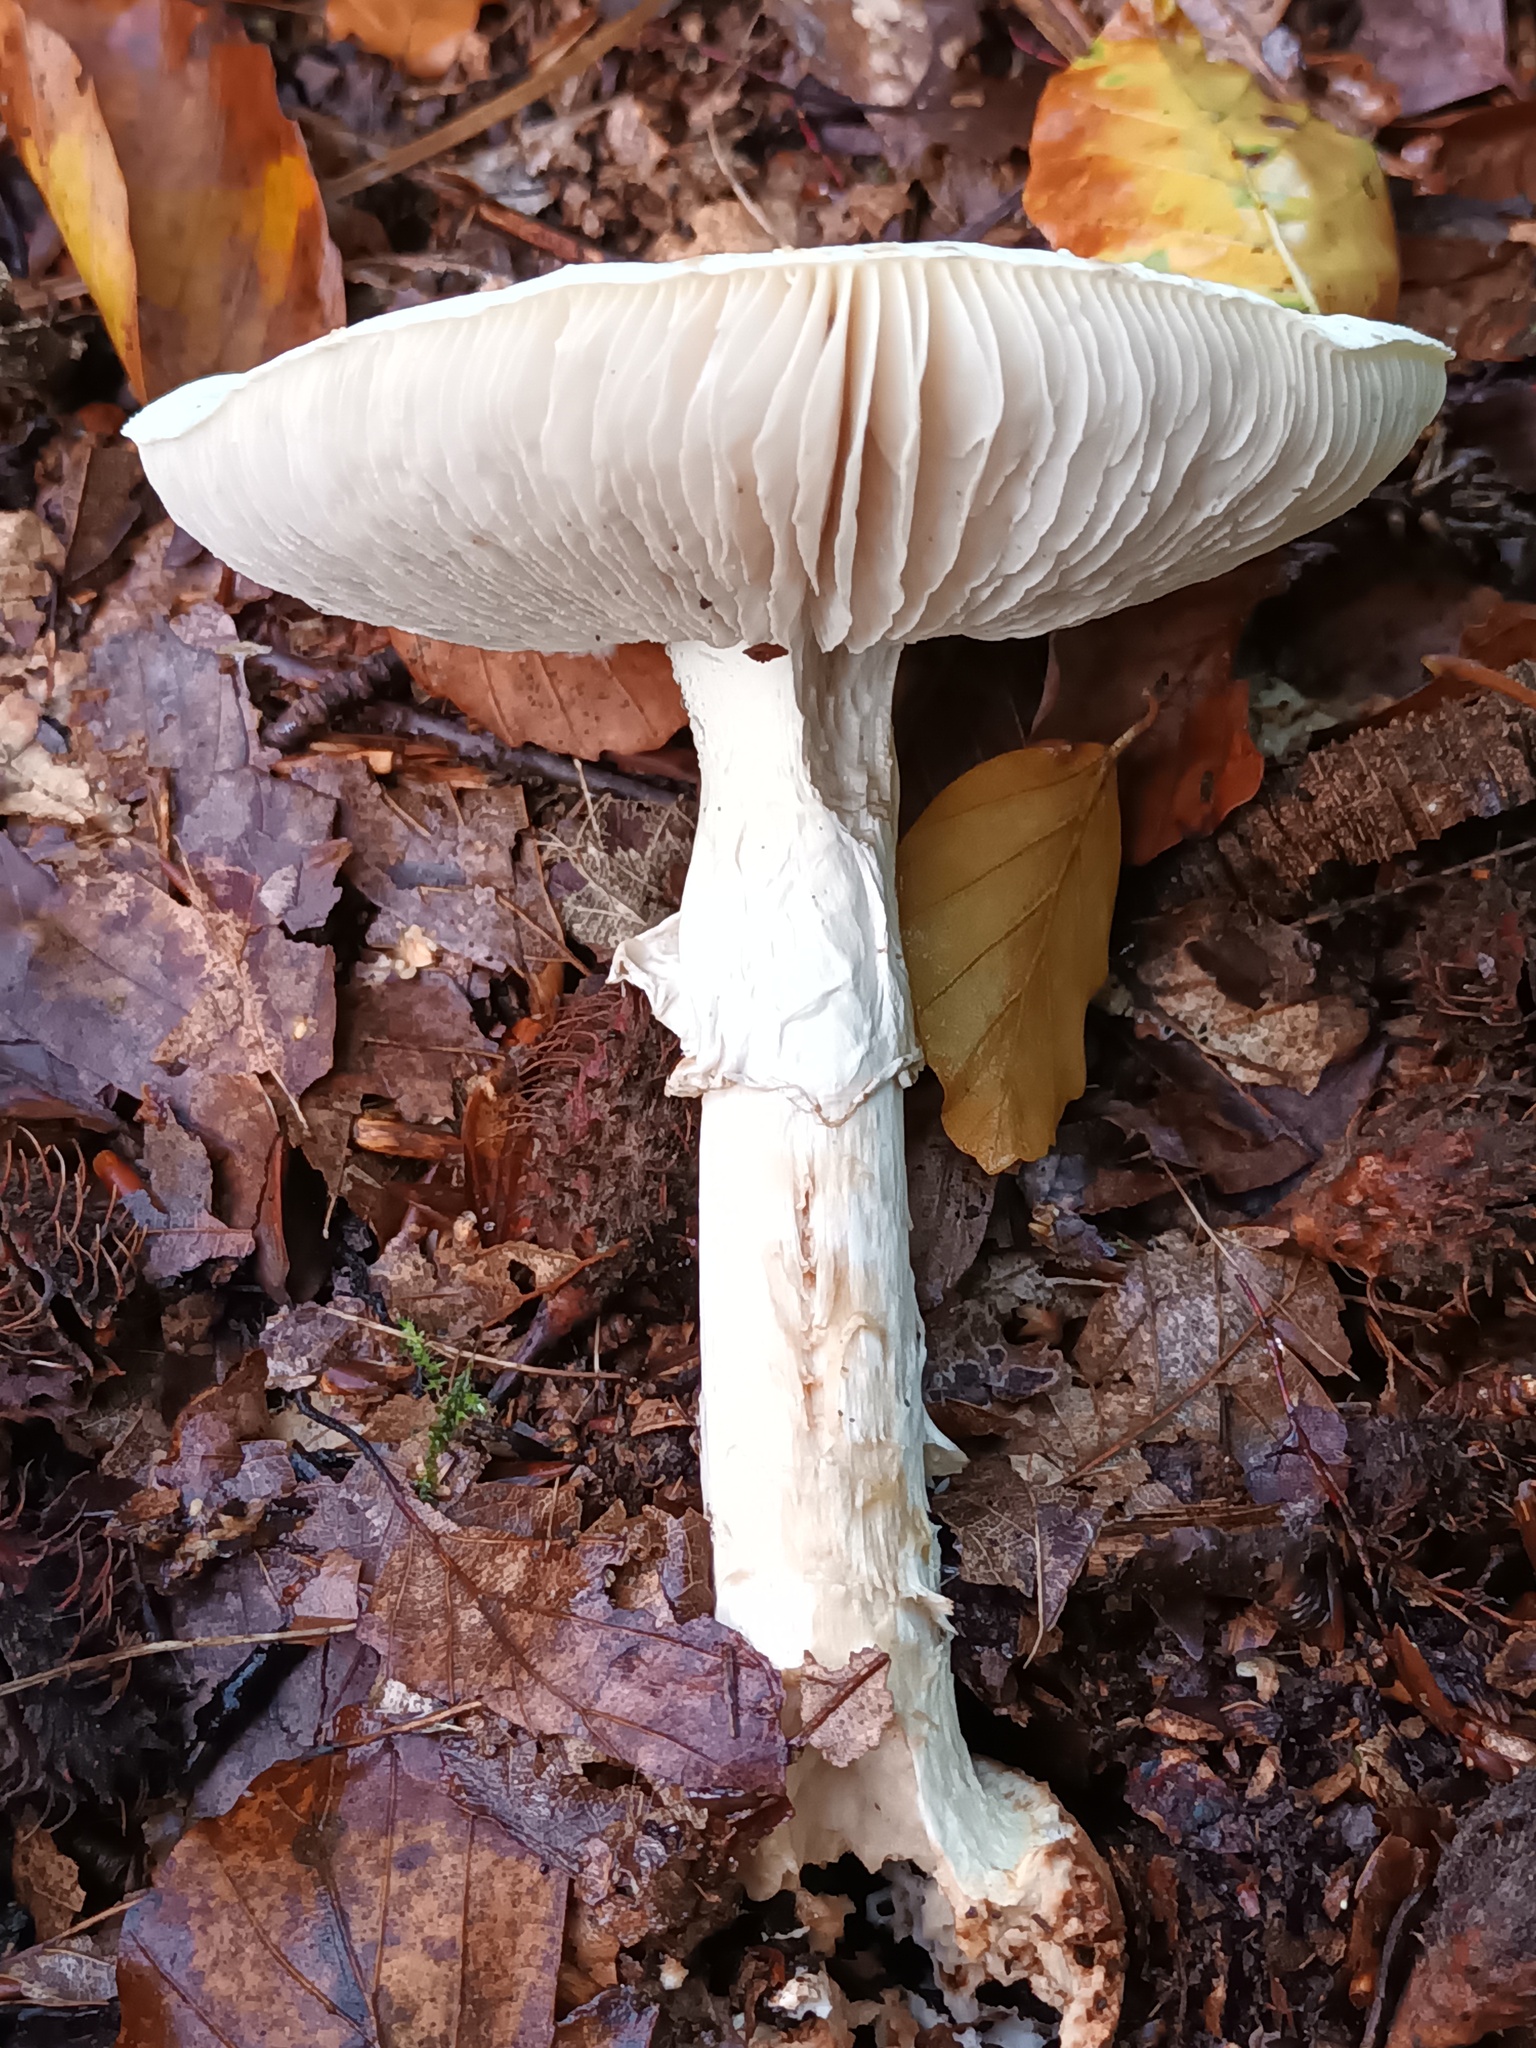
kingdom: Fungi
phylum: Basidiomycota
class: Agaricomycetes
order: Agaricales
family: Amanitaceae
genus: Amanita
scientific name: Amanita citrina
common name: False death-cap
